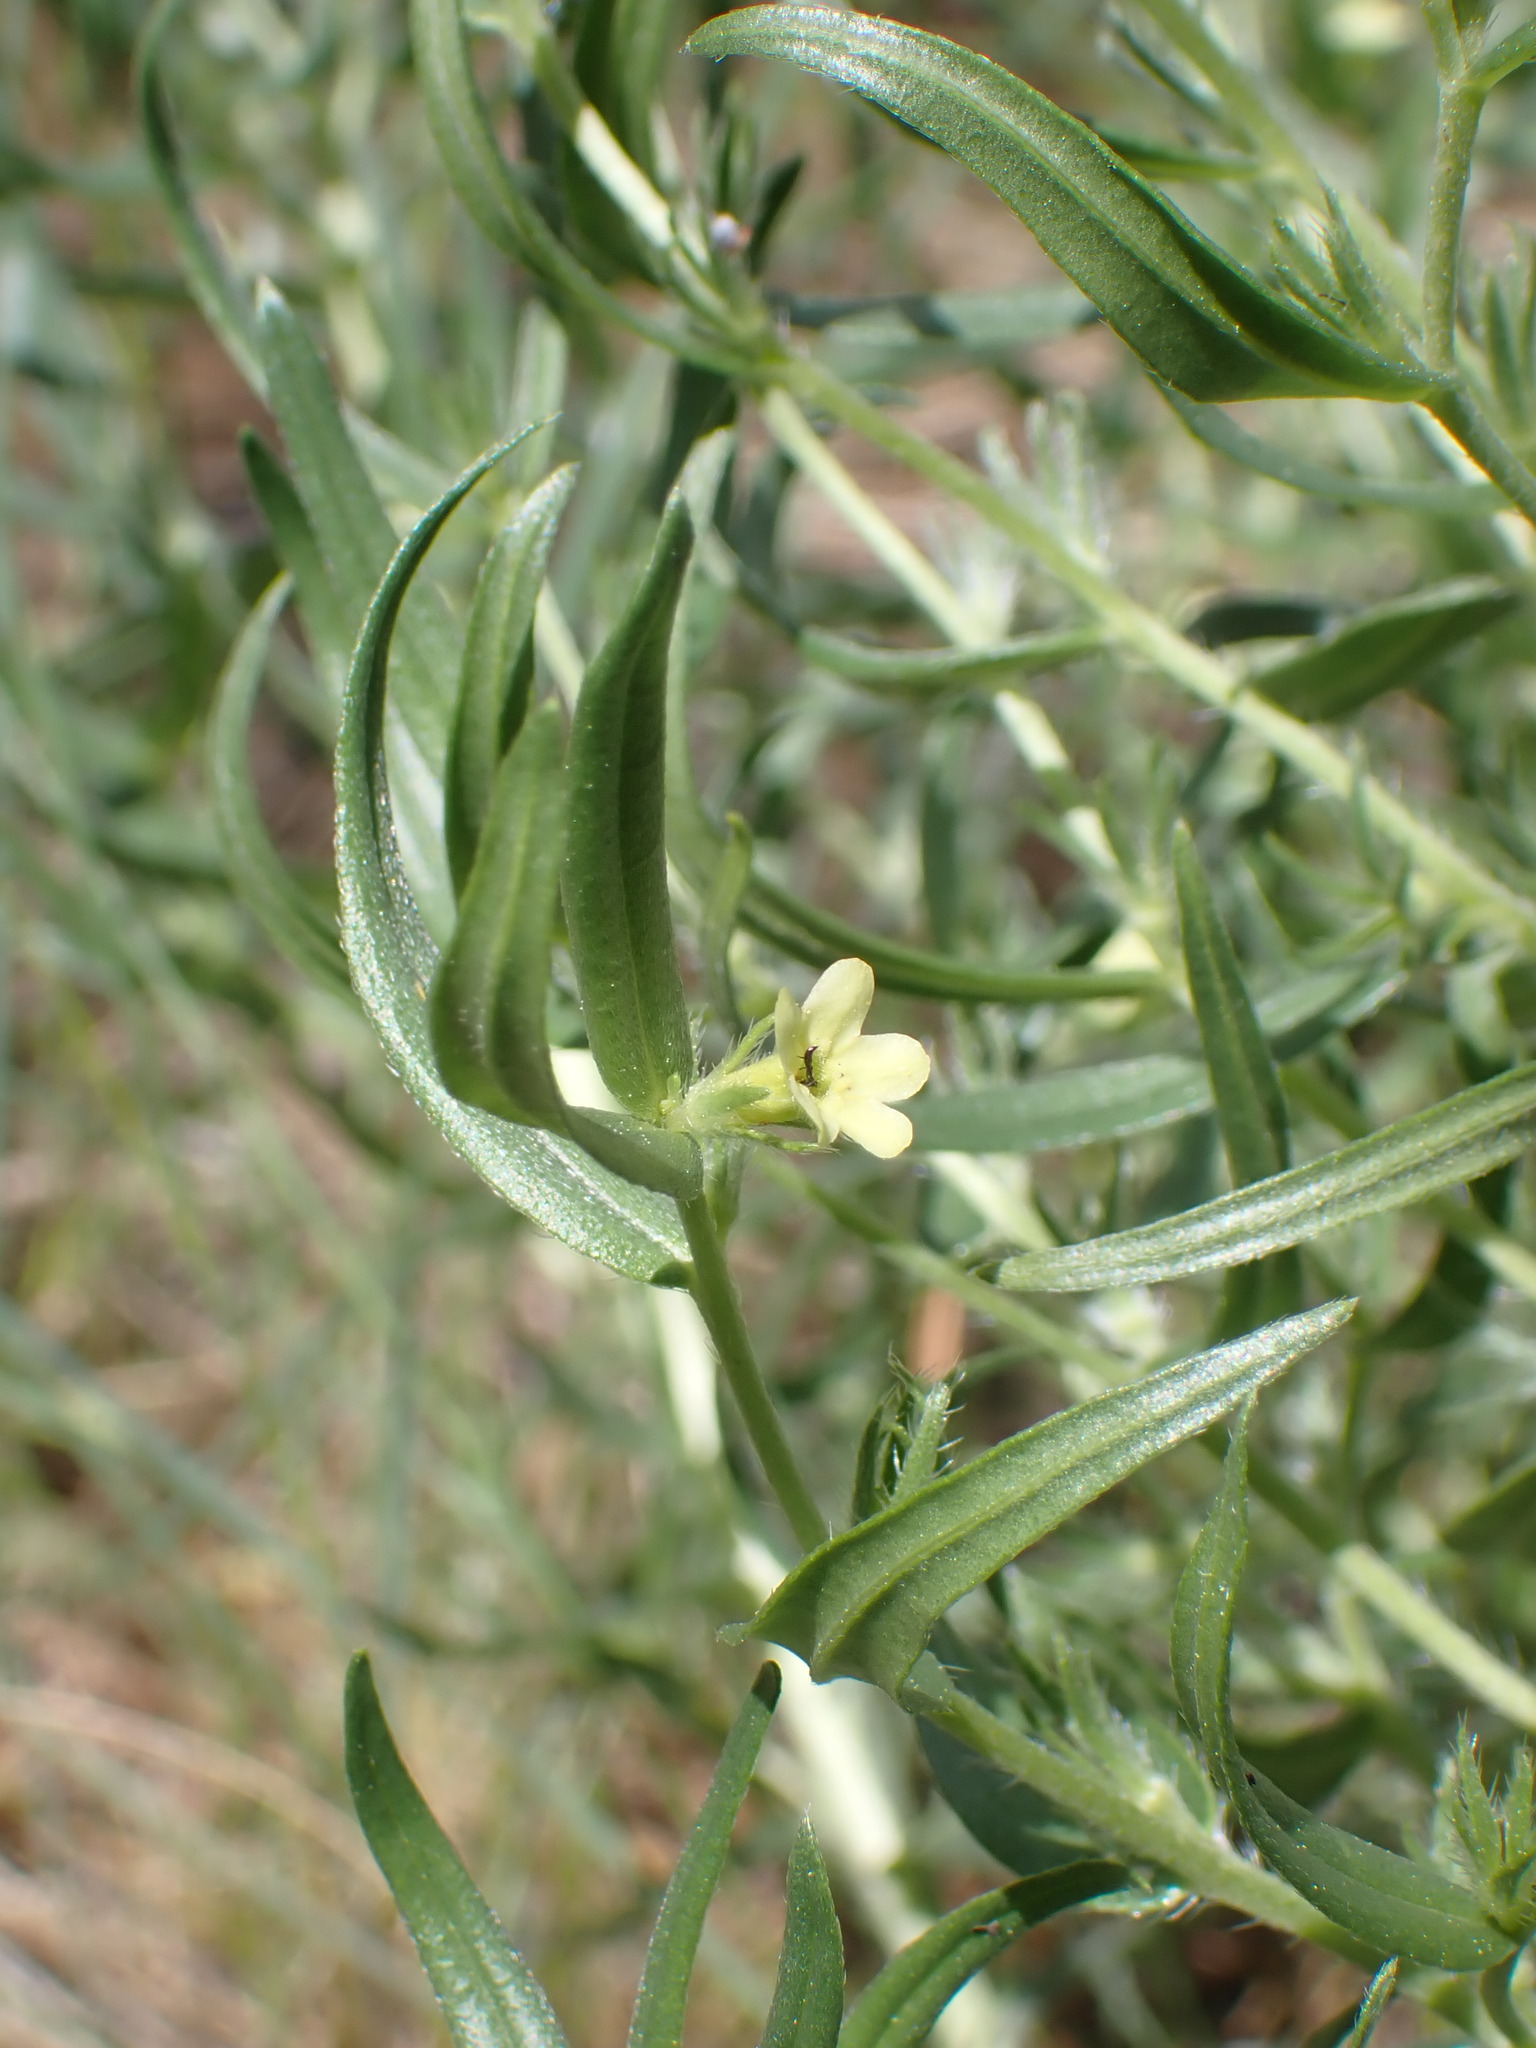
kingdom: Plantae
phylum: Tracheophyta
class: Magnoliopsida
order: Boraginales
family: Boraginaceae
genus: Lithospermum
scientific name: Lithospermum ruderale
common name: Western gromwell
